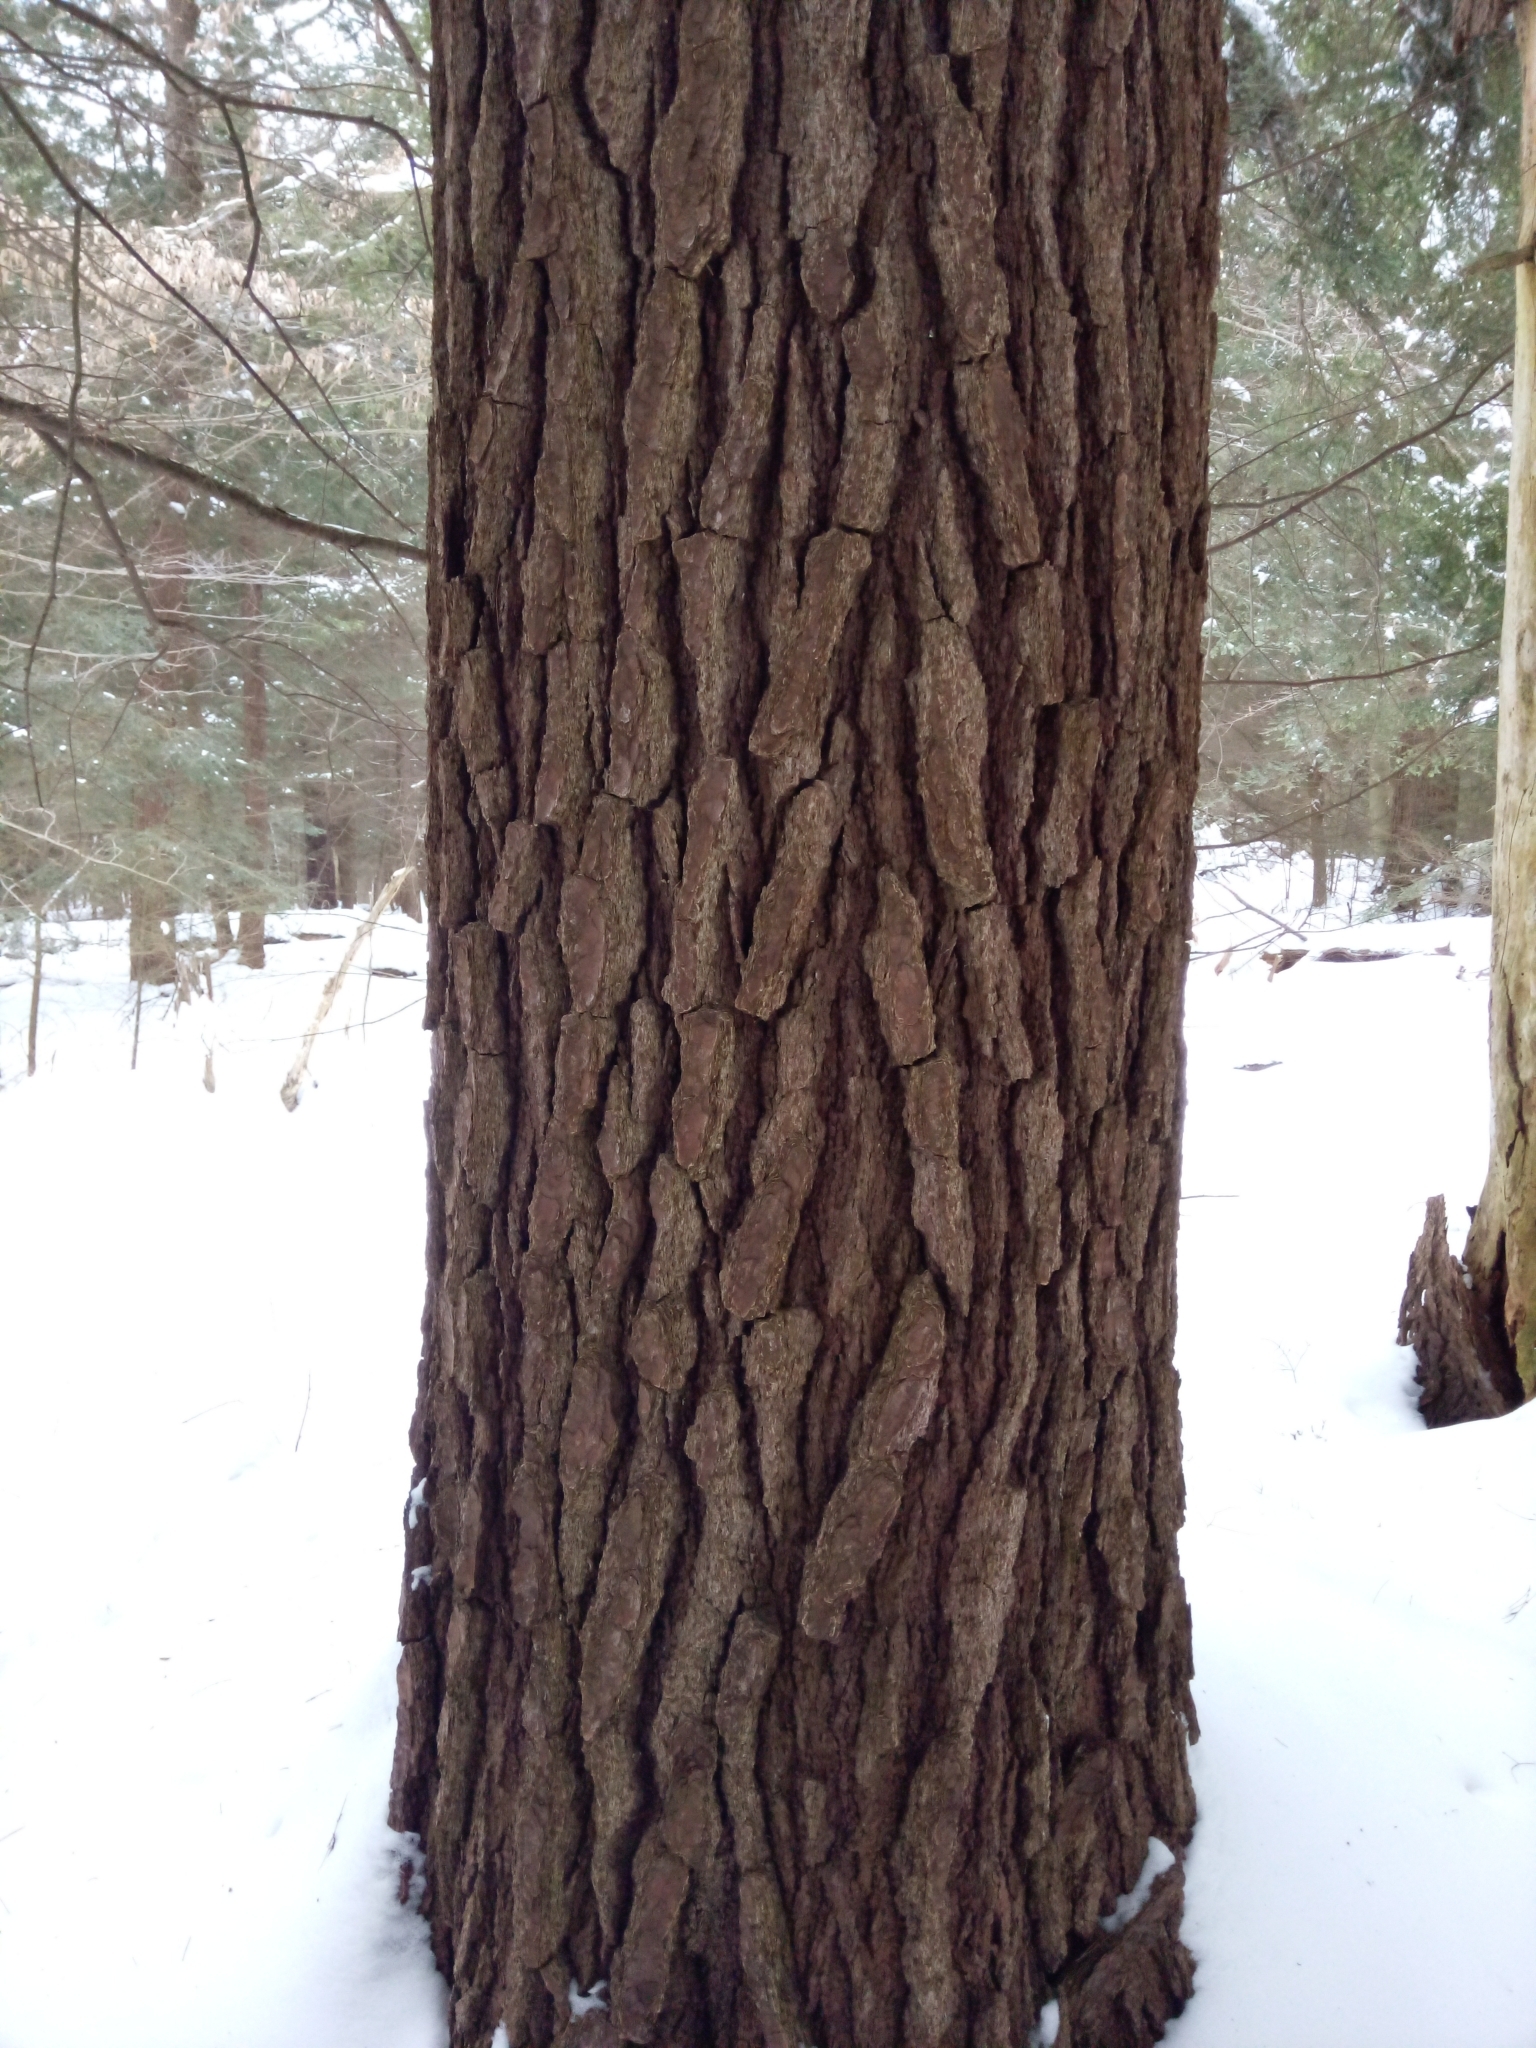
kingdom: Plantae
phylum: Tracheophyta
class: Pinopsida
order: Pinales
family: Pinaceae
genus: Pinus
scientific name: Pinus strobus
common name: Weymouth pine
